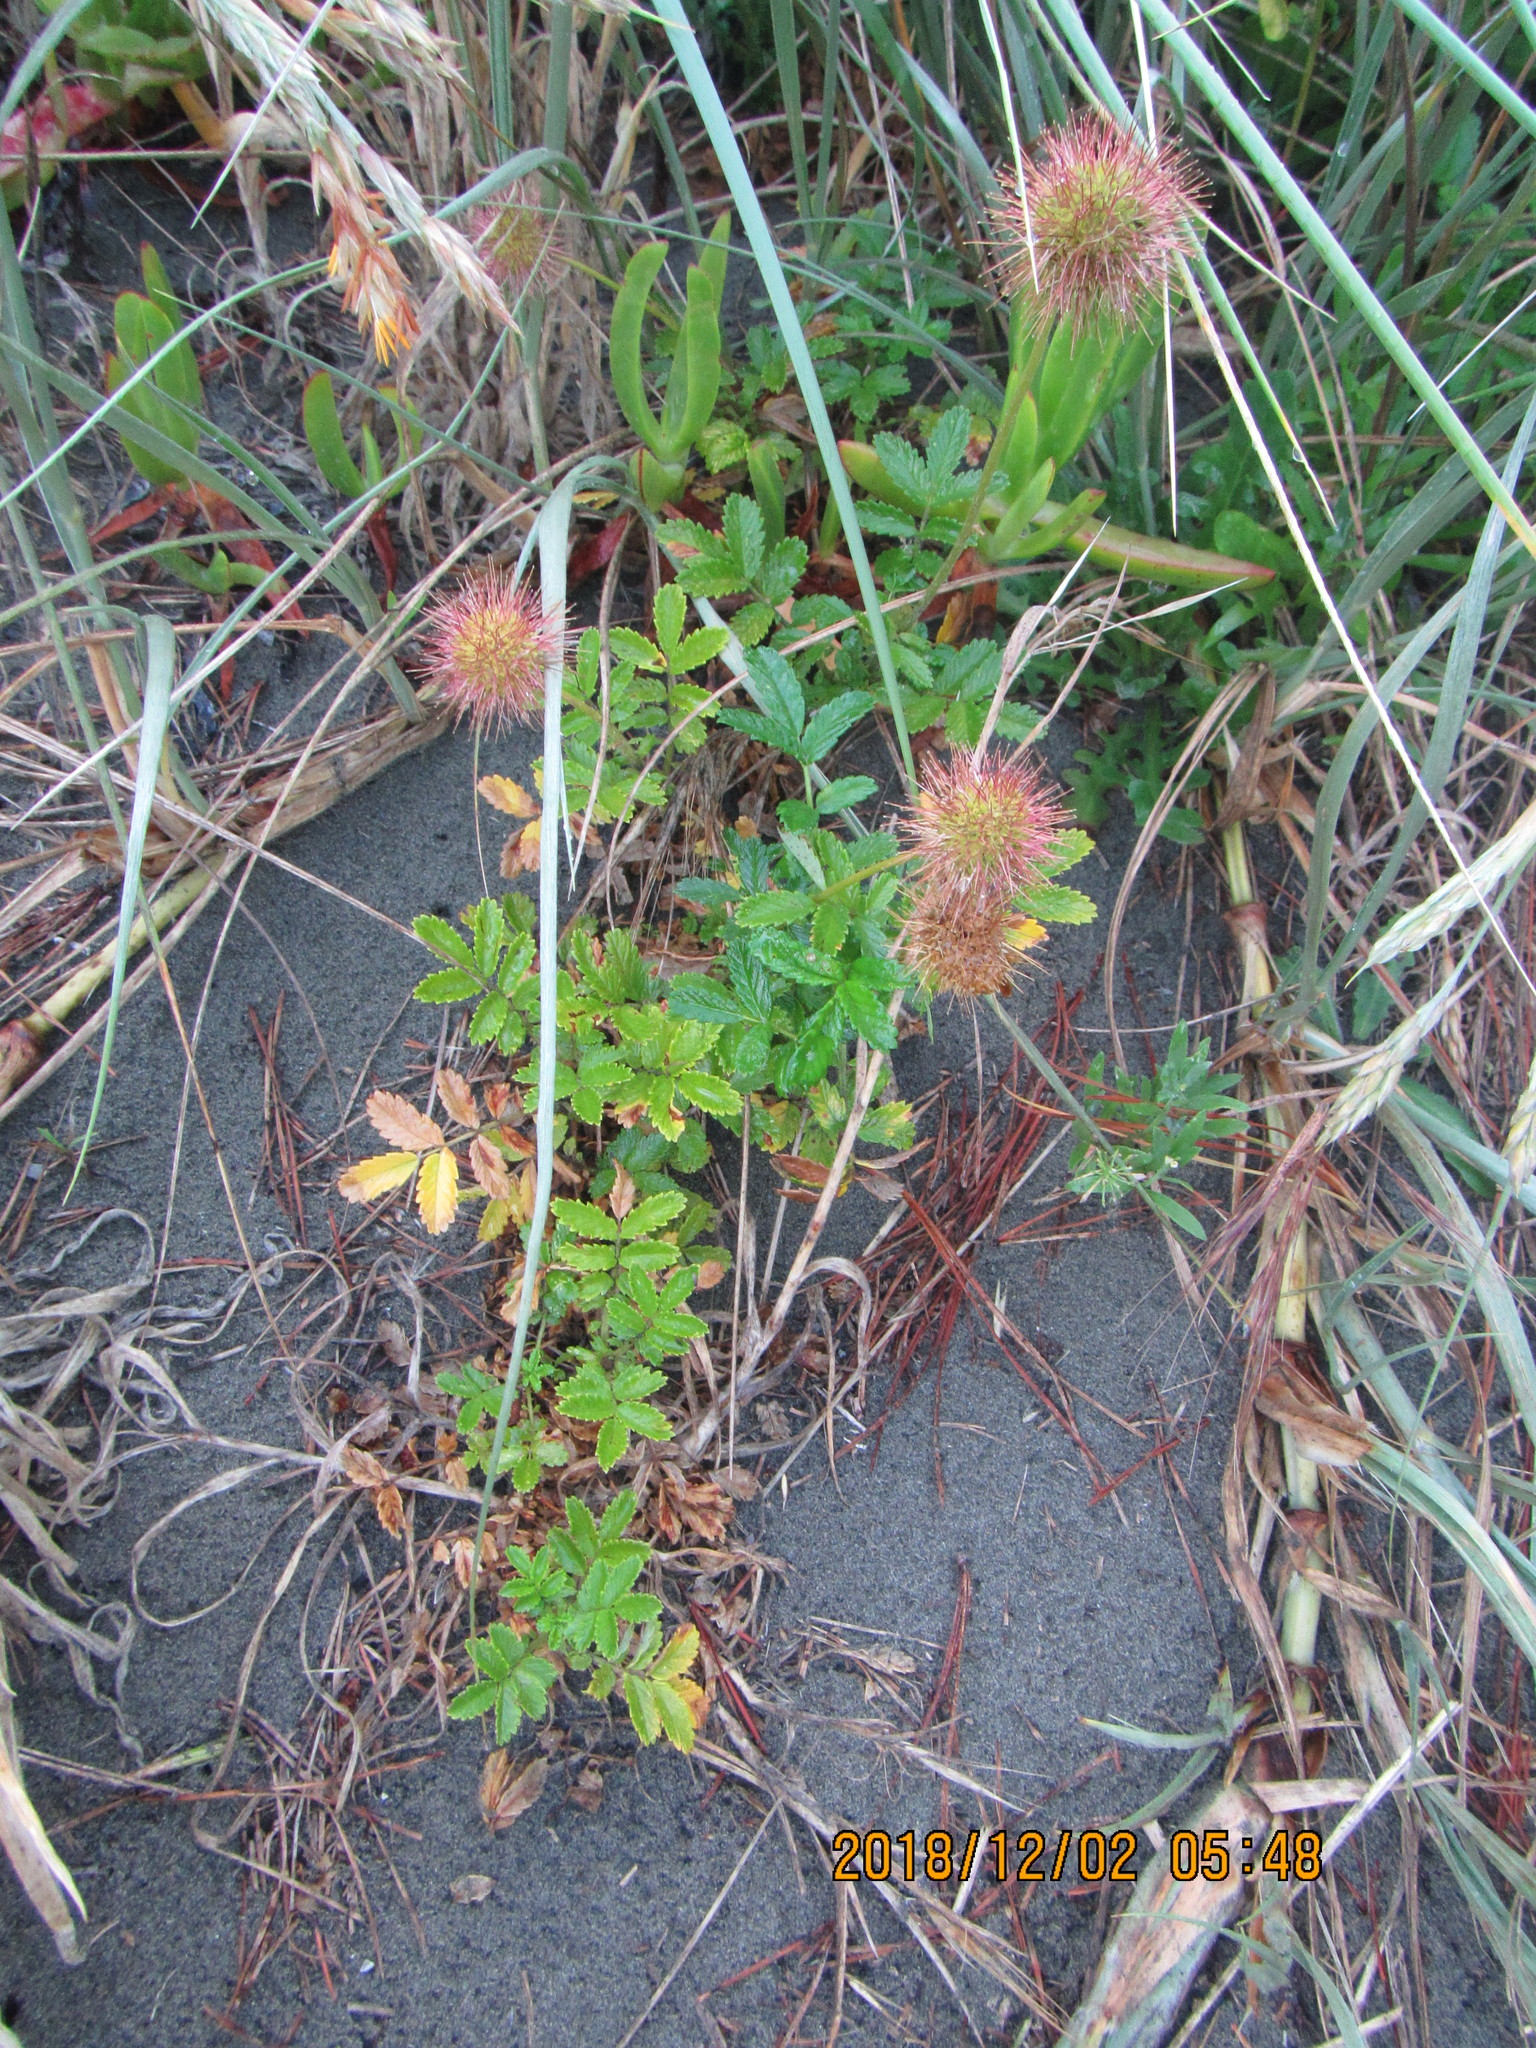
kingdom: Plantae
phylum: Tracheophyta
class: Magnoliopsida
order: Rosales
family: Rosaceae
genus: Acaena
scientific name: Acaena novae-zelandiae
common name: Pirri-pirri-bur
